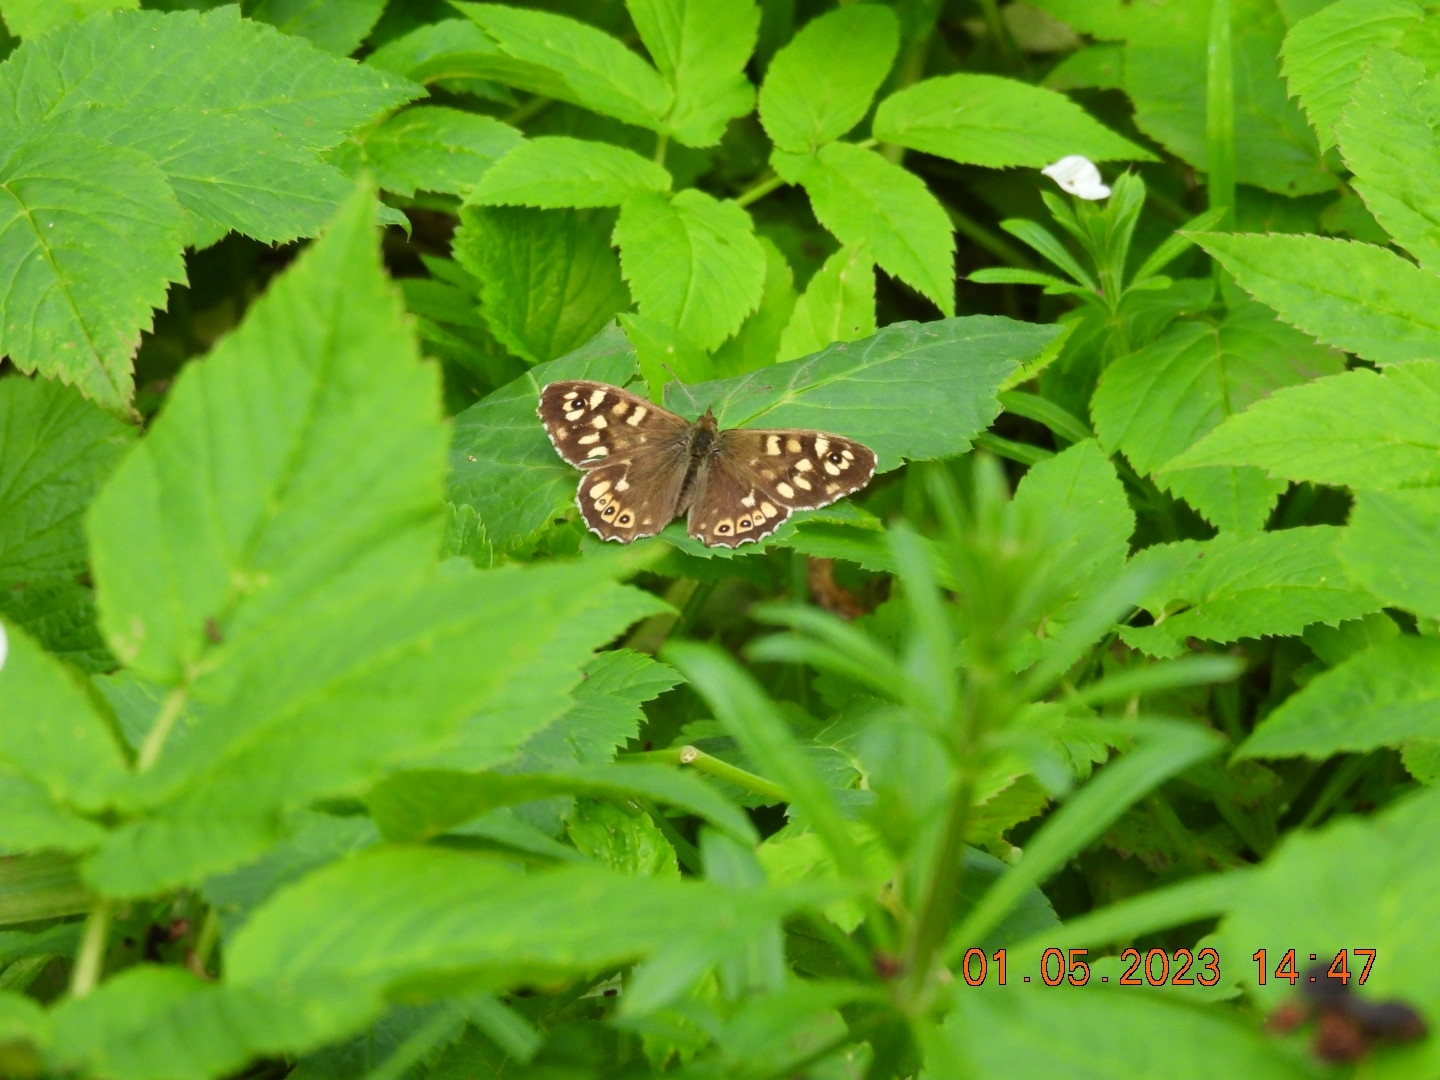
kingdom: Animalia
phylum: Arthropoda
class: Insecta
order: Lepidoptera
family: Nymphalidae
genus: Pararge
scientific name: Pararge aegeria
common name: Speckled wood
